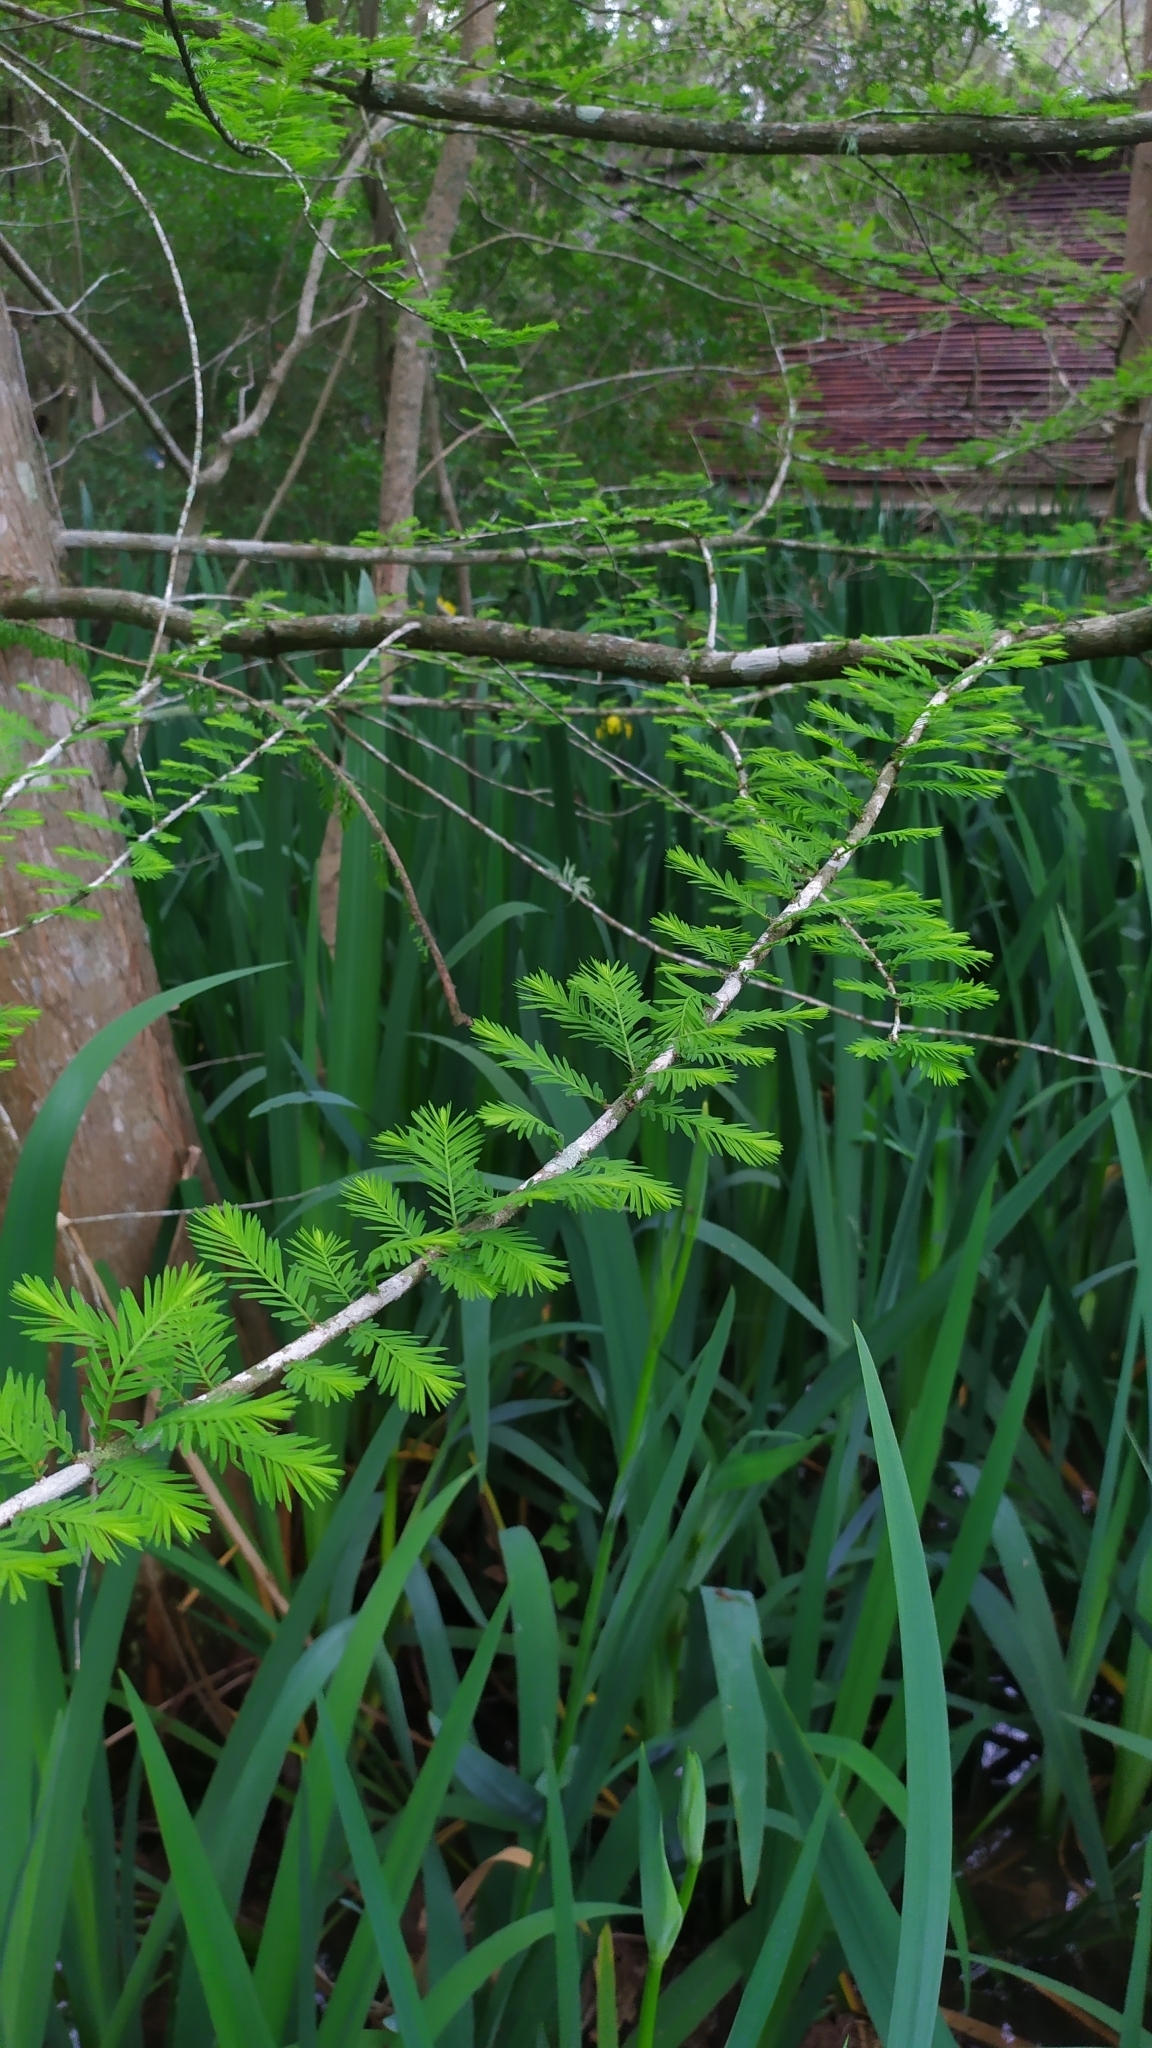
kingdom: Plantae
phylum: Tracheophyta
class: Pinopsida
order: Pinales
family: Cupressaceae
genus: Taxodium
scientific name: Taxodium distichum
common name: Bald cypress
